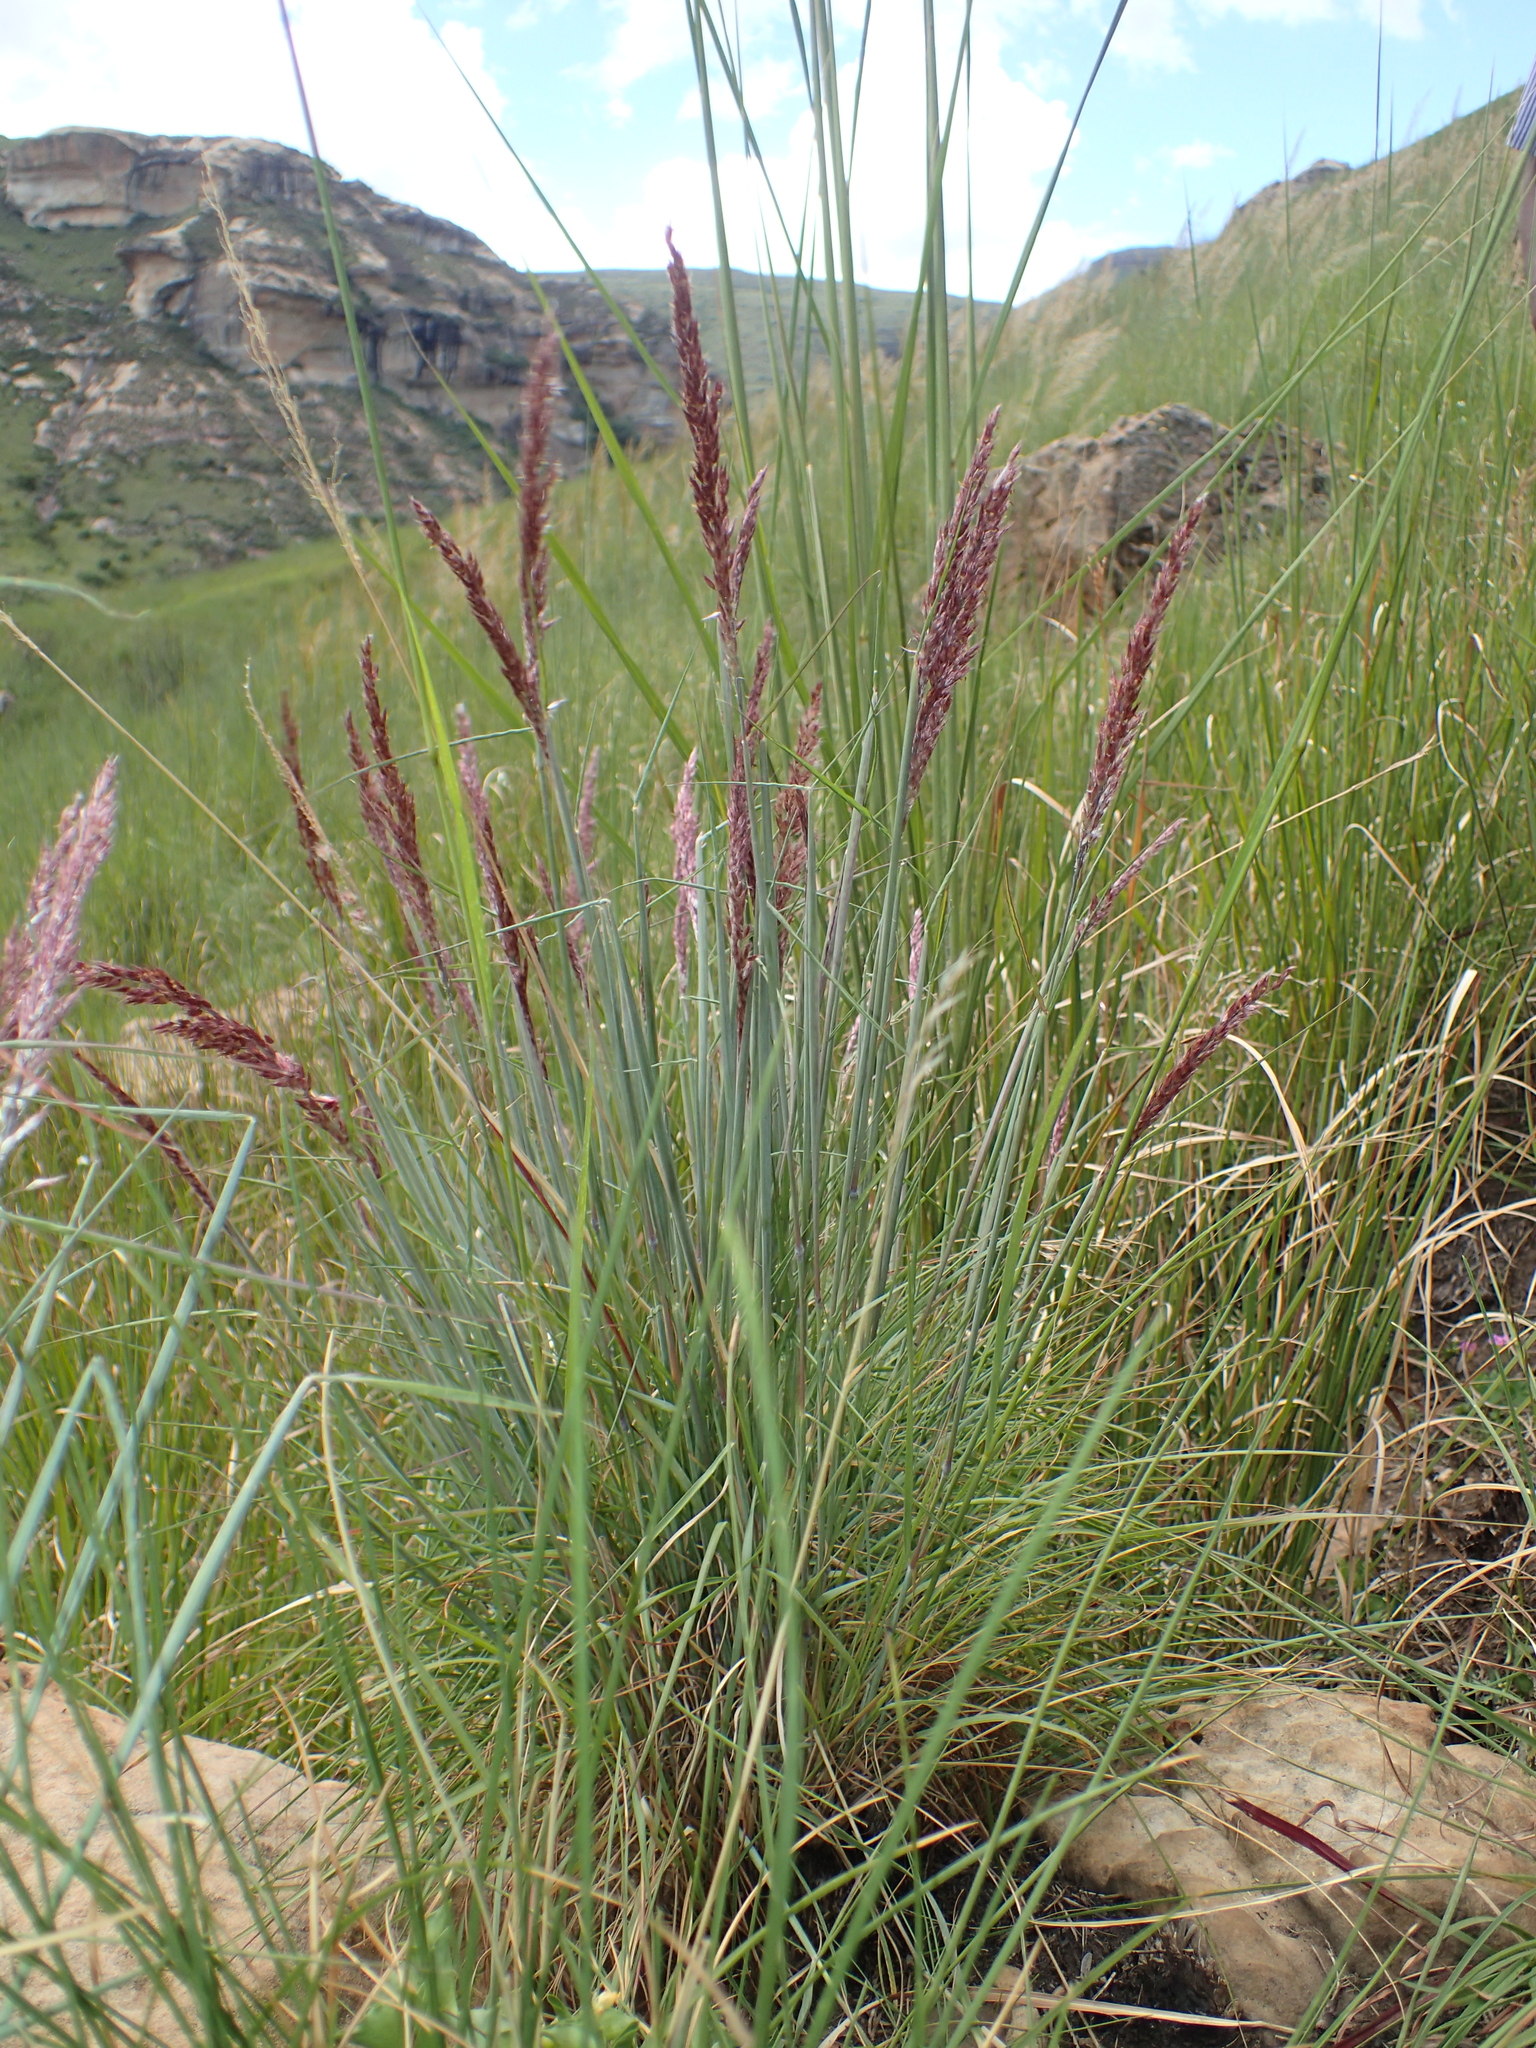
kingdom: Plantae
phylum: Tracheophyta
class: Liliopsida
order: Poales
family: Poaceae
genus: Melinis
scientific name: Melinis nerviglumis
